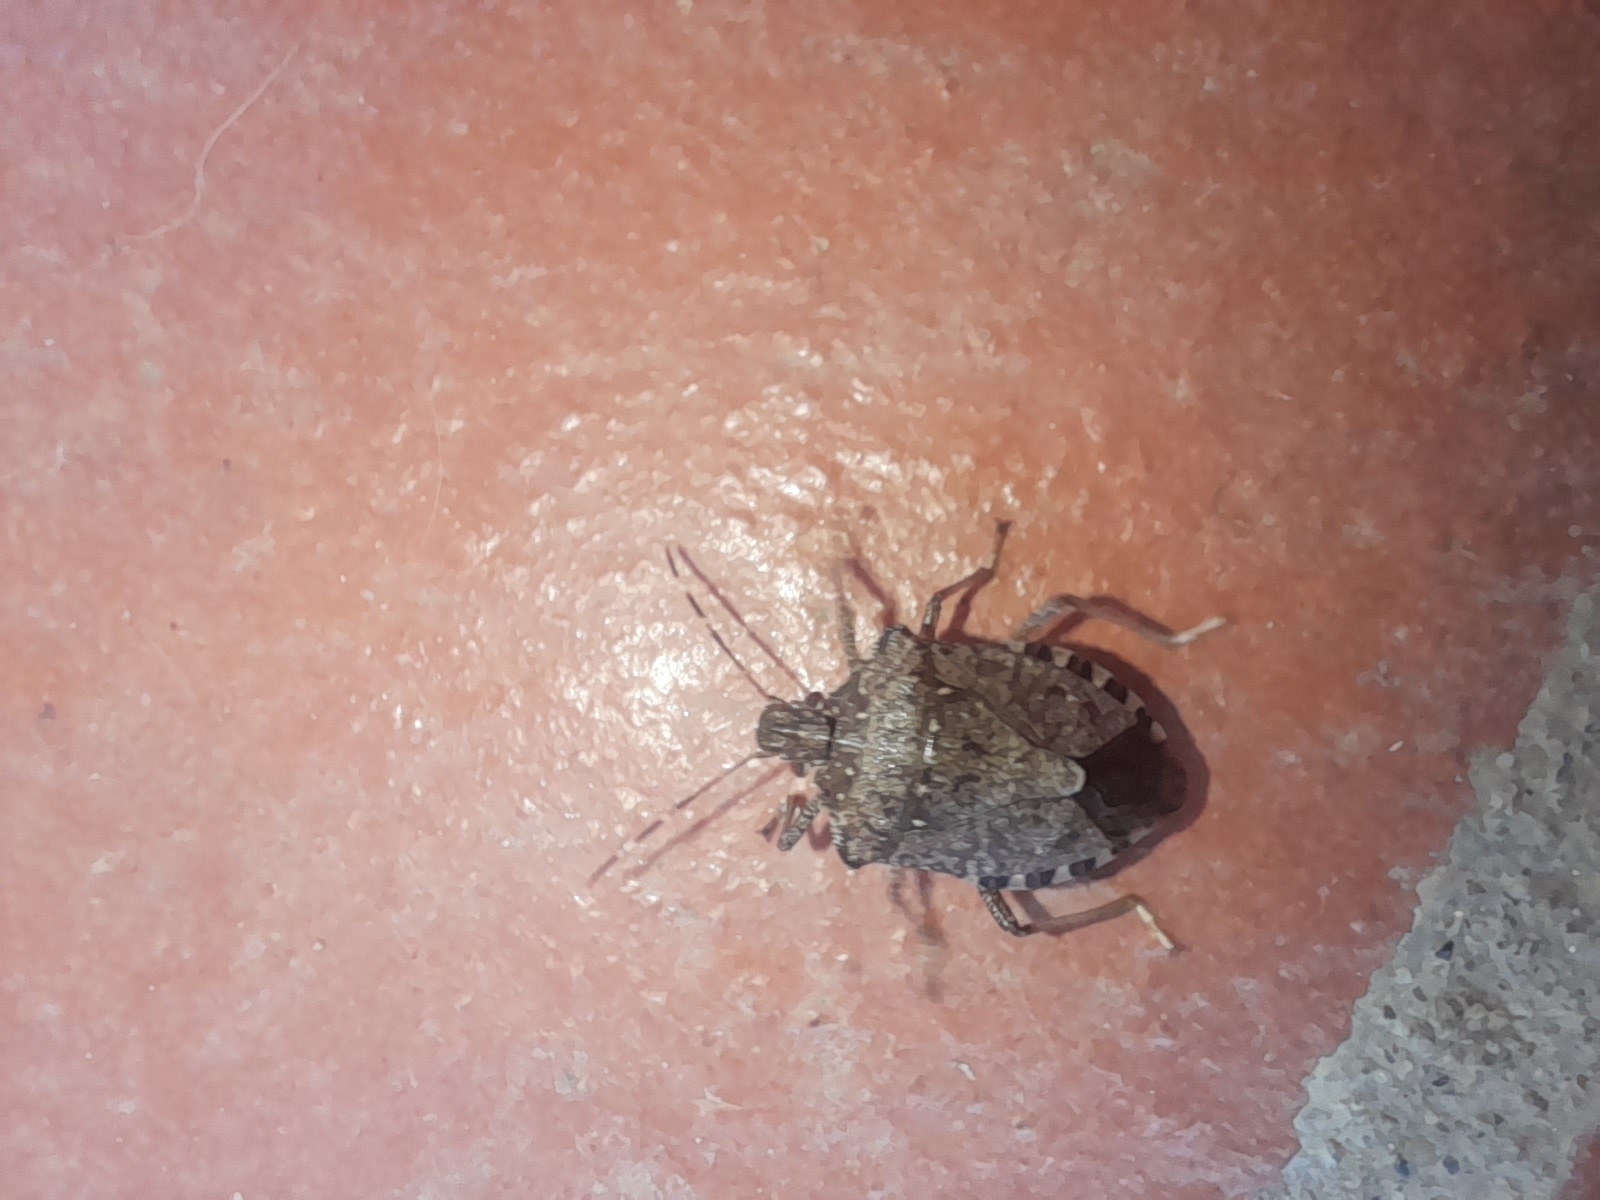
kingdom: Animalia
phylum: Arthropoda
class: Insecta
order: Hemiptera
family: Pentatomidae
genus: Halyomorpha
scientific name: Halyomorpha halys
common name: Brown marmorated stink bug
